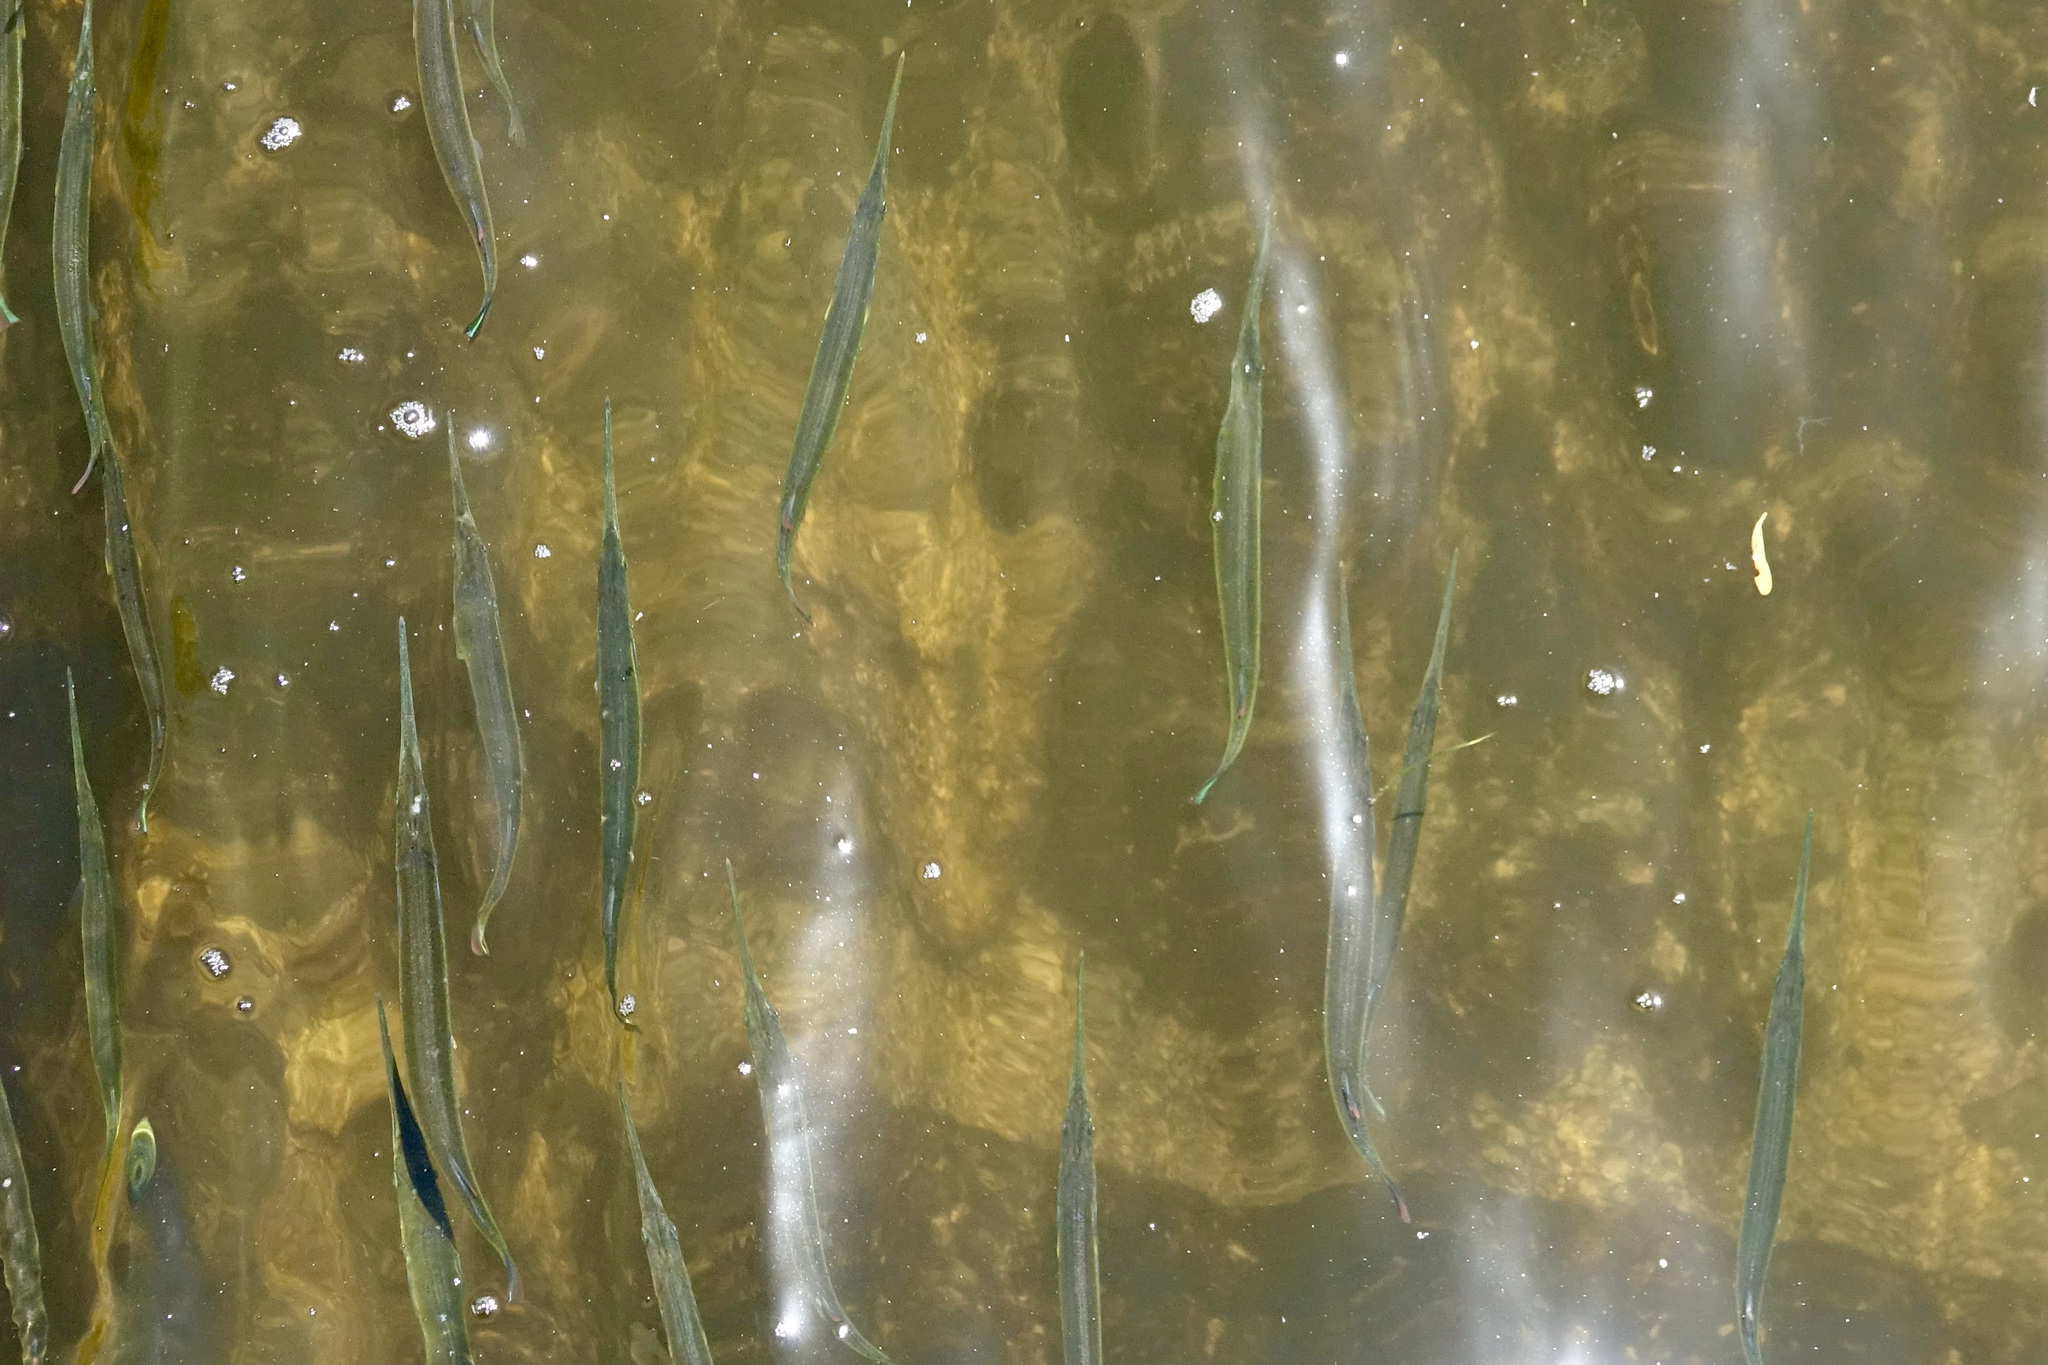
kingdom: Animalia
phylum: Chordata
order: Beloniformes
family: Belonidae
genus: Strongylura
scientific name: Strongylura notata
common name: Redfin needlefish
